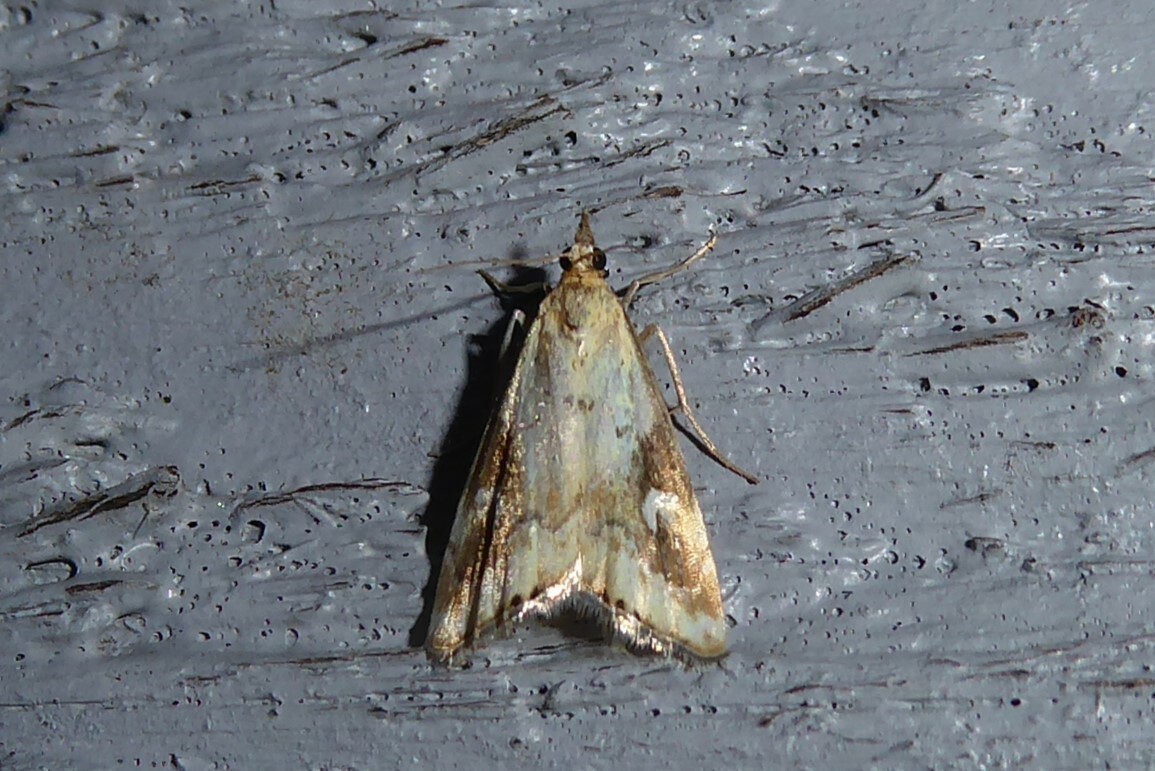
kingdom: Animalia
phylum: Arthropoda
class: Insecta
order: Lepidoptera
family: Crambidae
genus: Glaucocharis
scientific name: Glaucocharis lepidella
